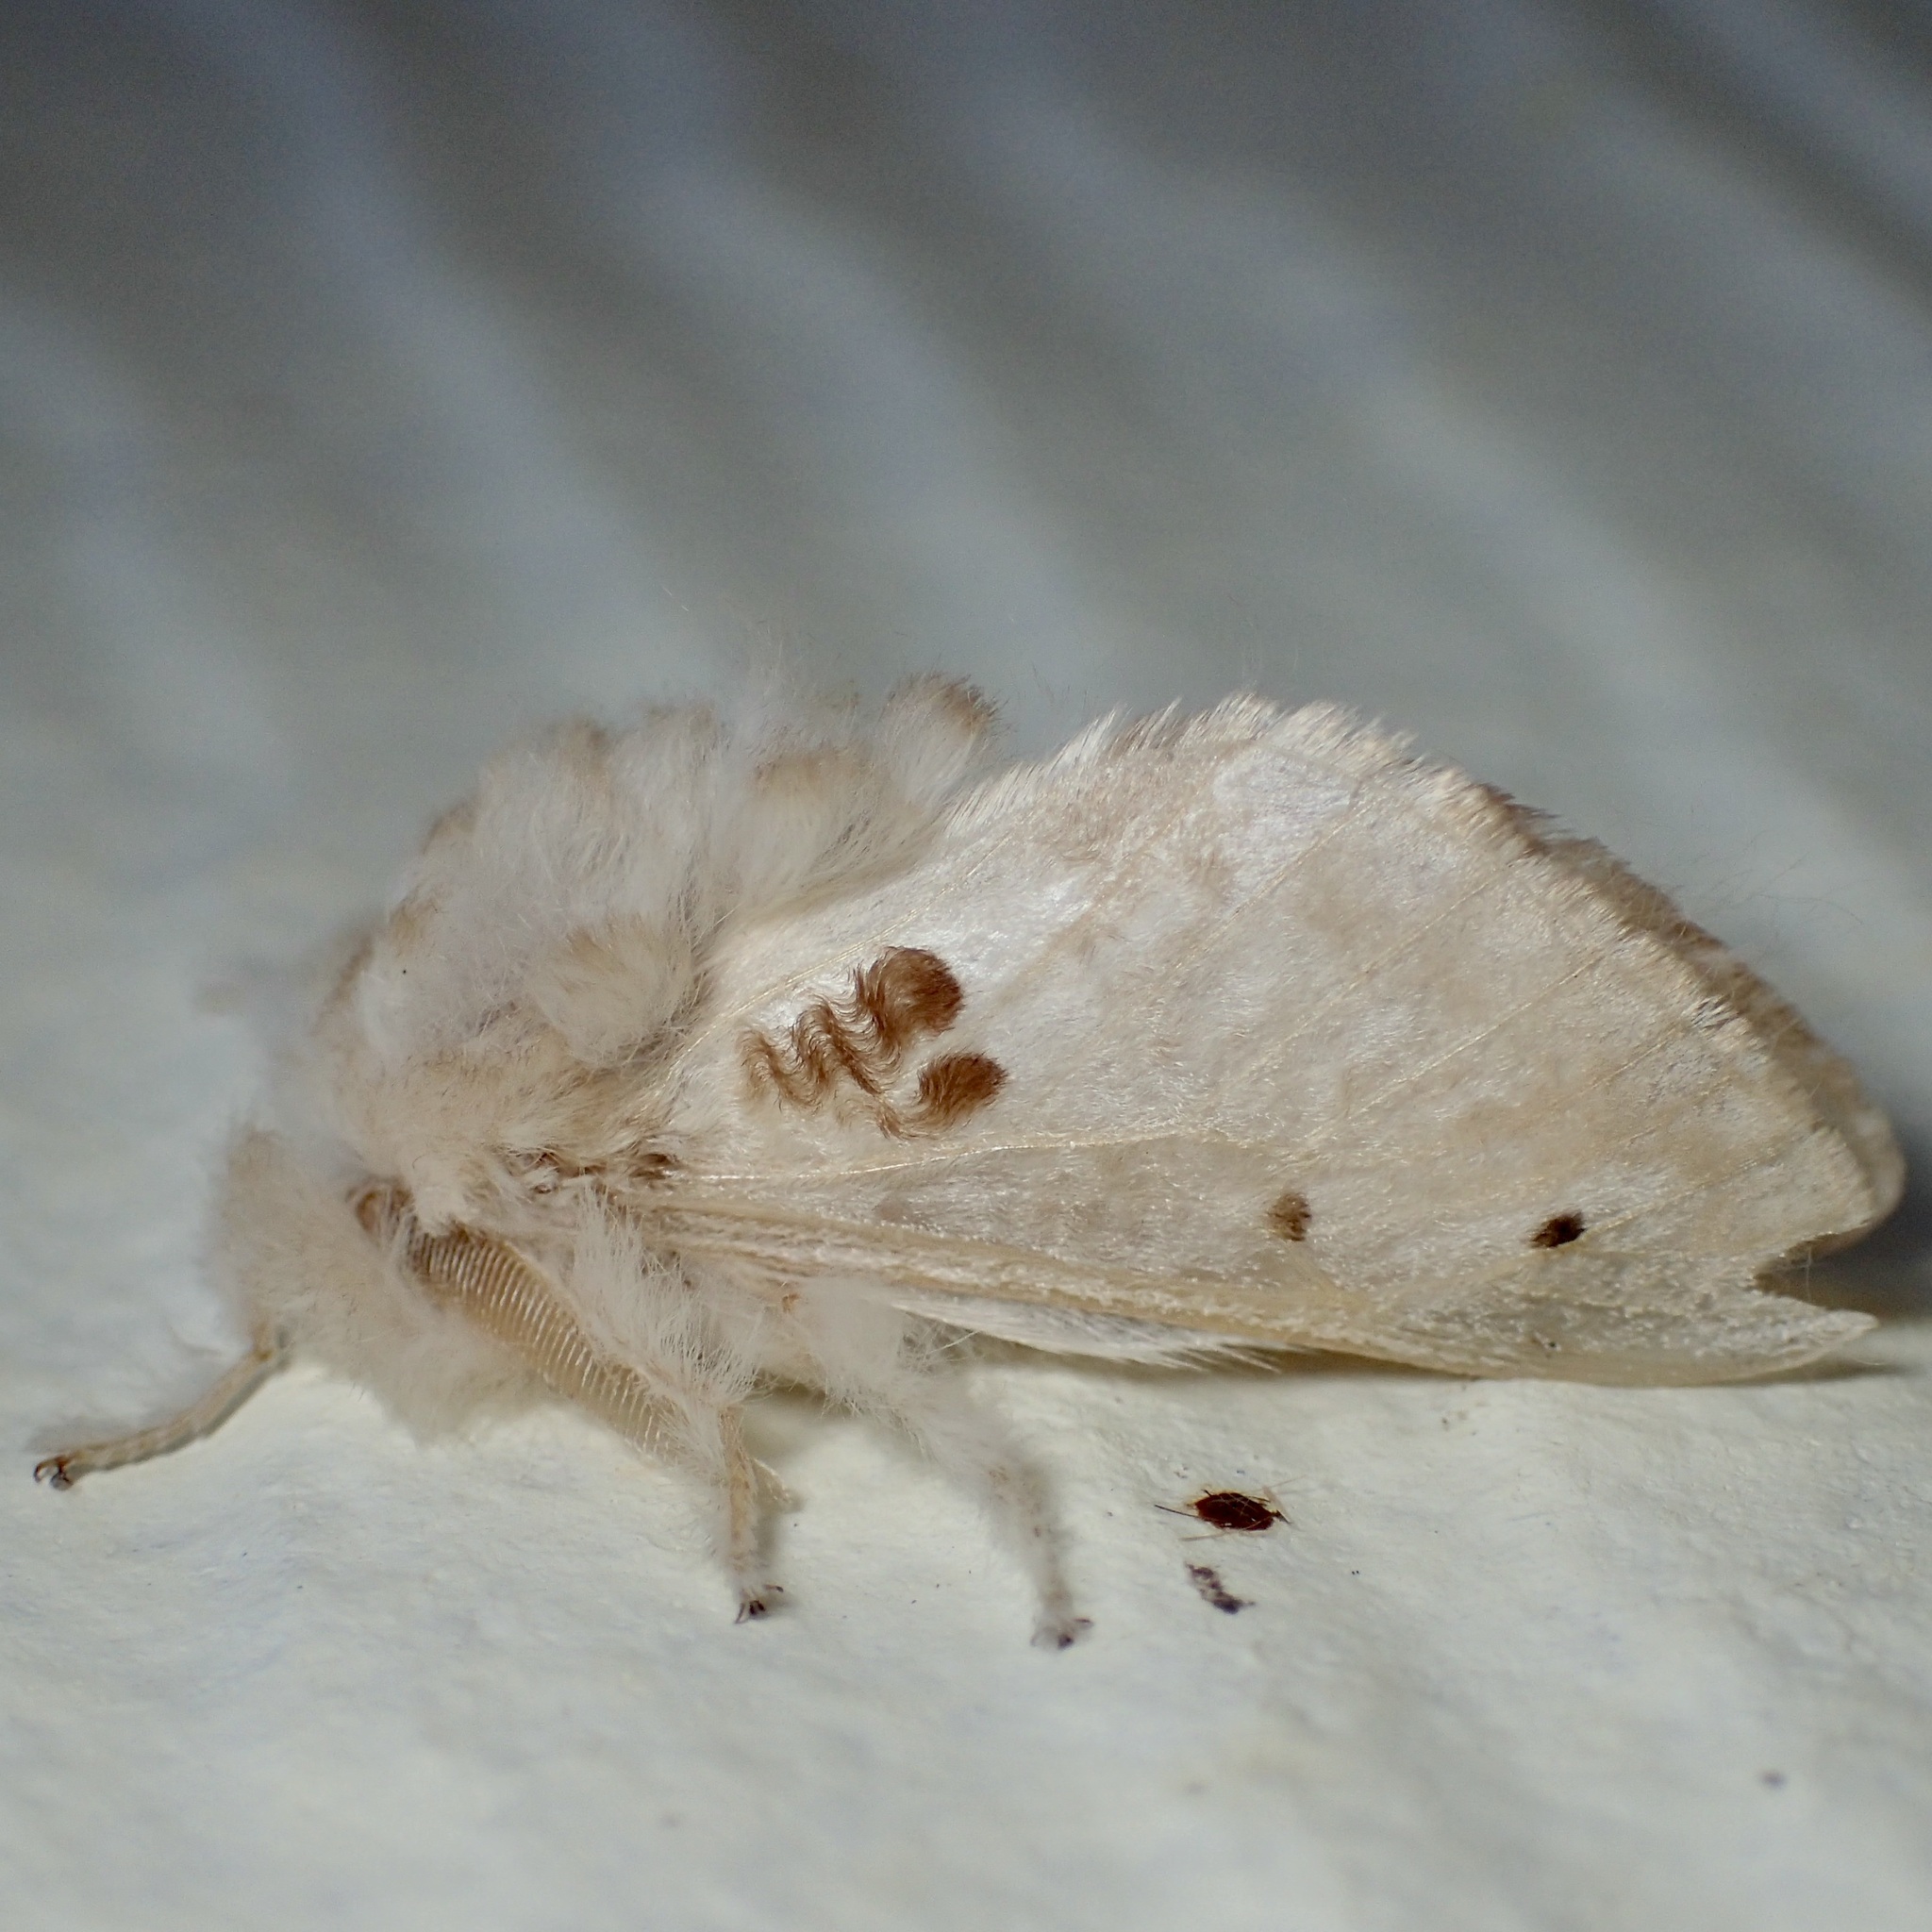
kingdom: Animalia
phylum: Arthropoda
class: Insecta
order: Lepidoptera
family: Megalopygidae
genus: Megalopyge
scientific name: Megalopyge lapena
